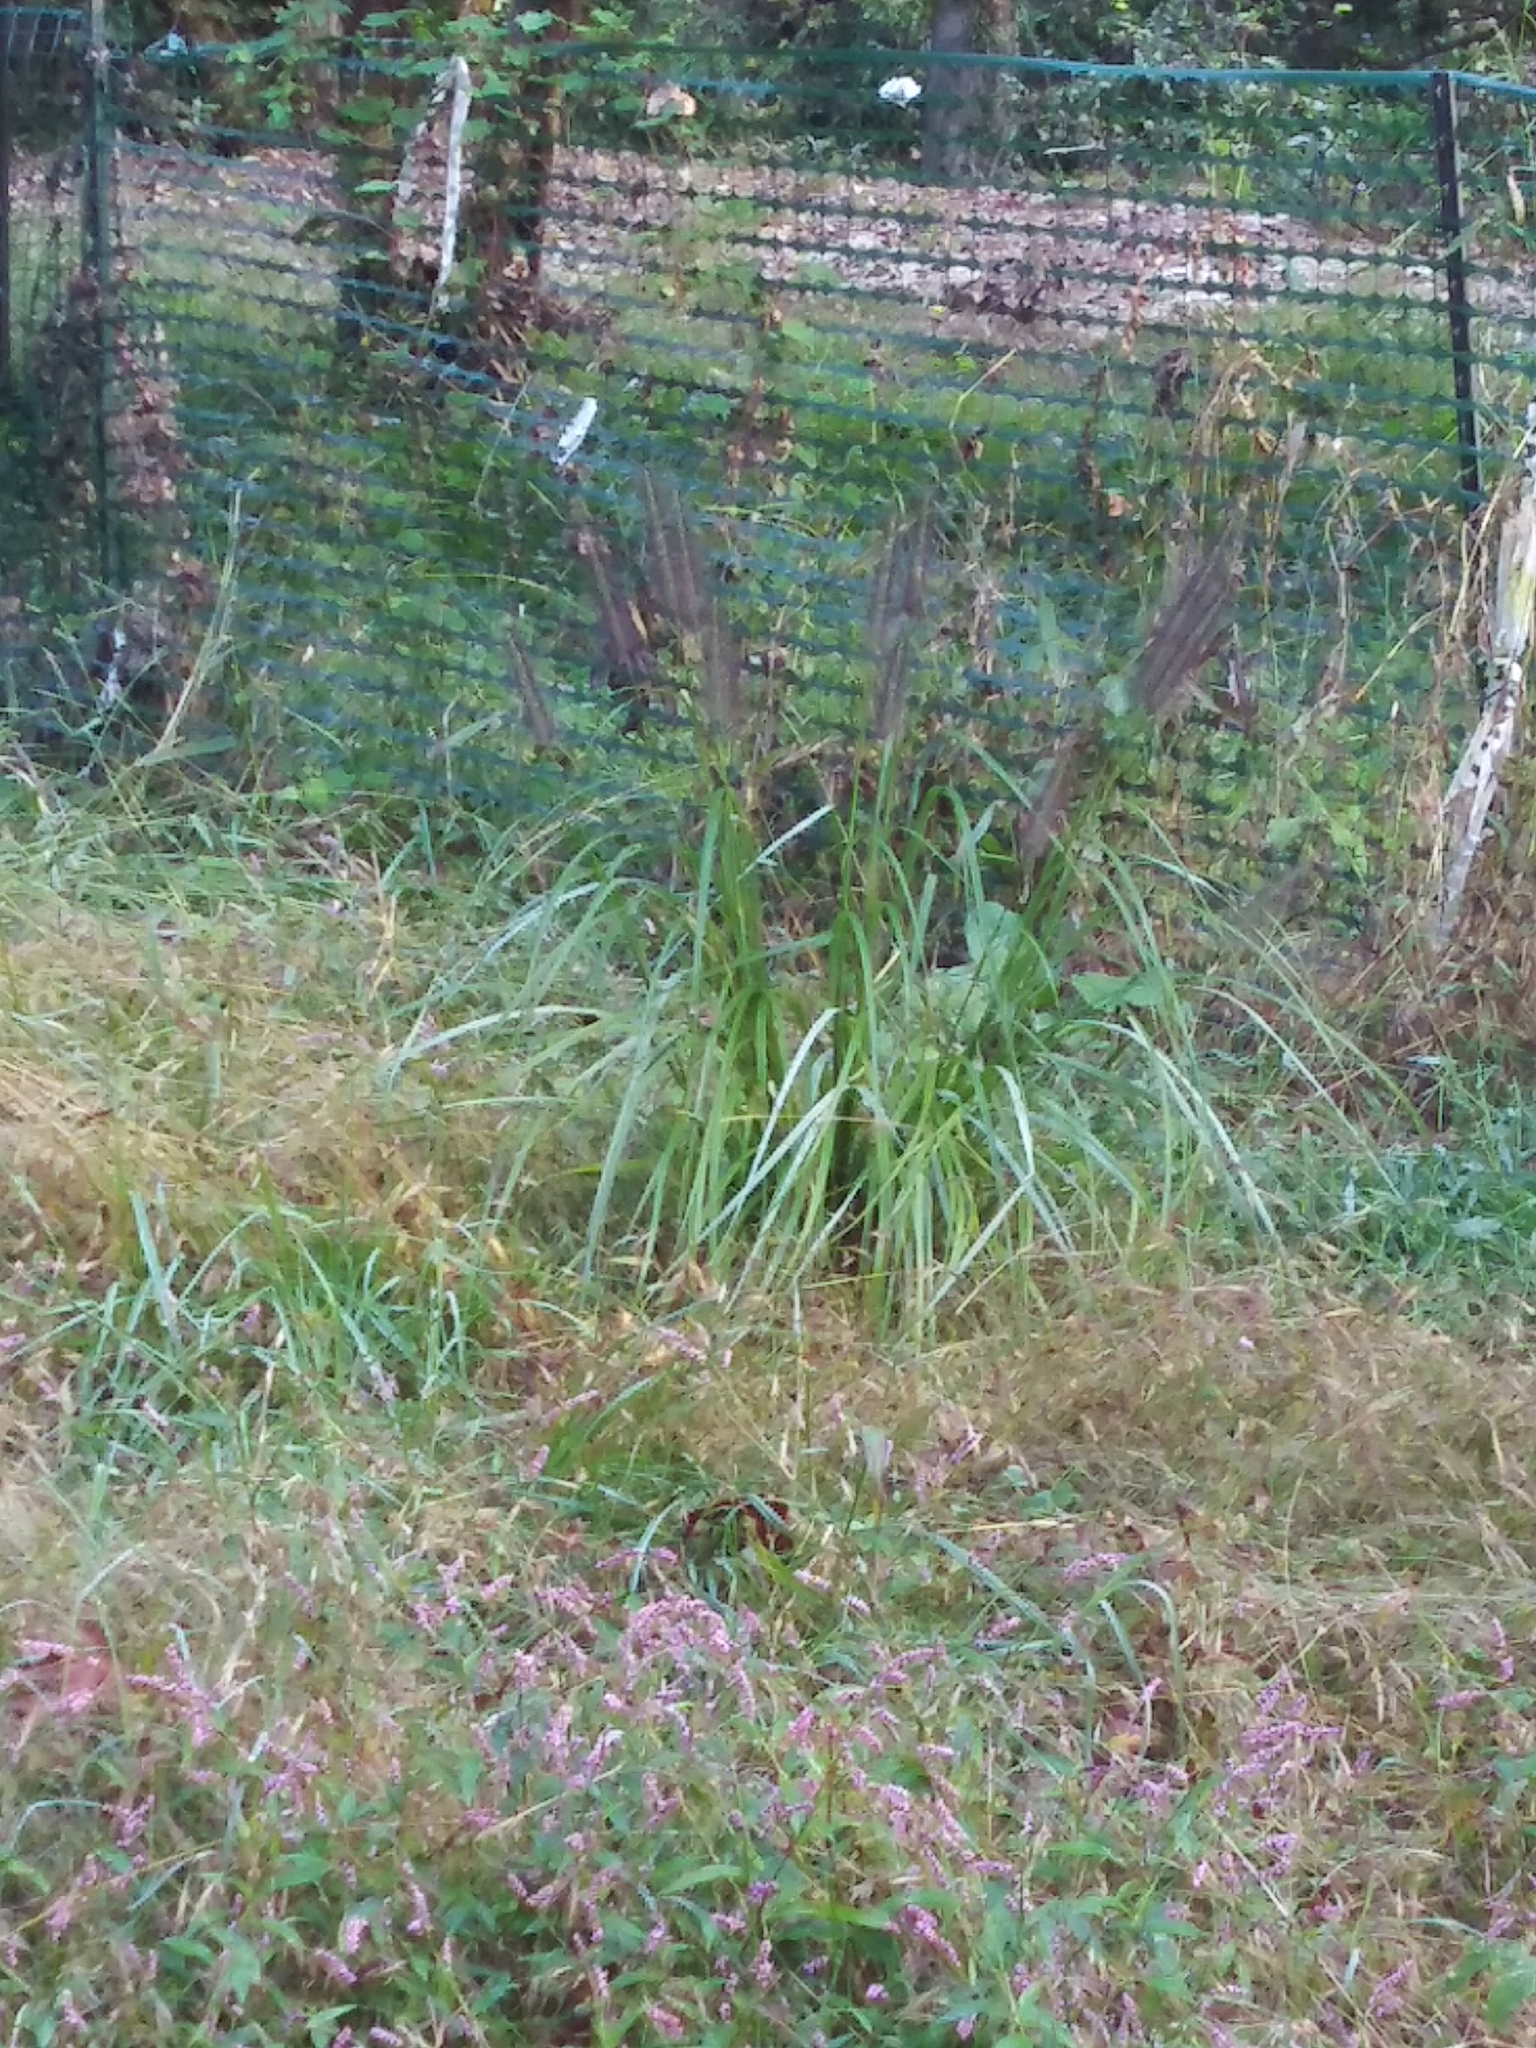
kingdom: Plantae
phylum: Tracheophyta
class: Liliopsida
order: Poales
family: Poaceae
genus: Cenchrus
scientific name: Cenchrus alopecuroides
